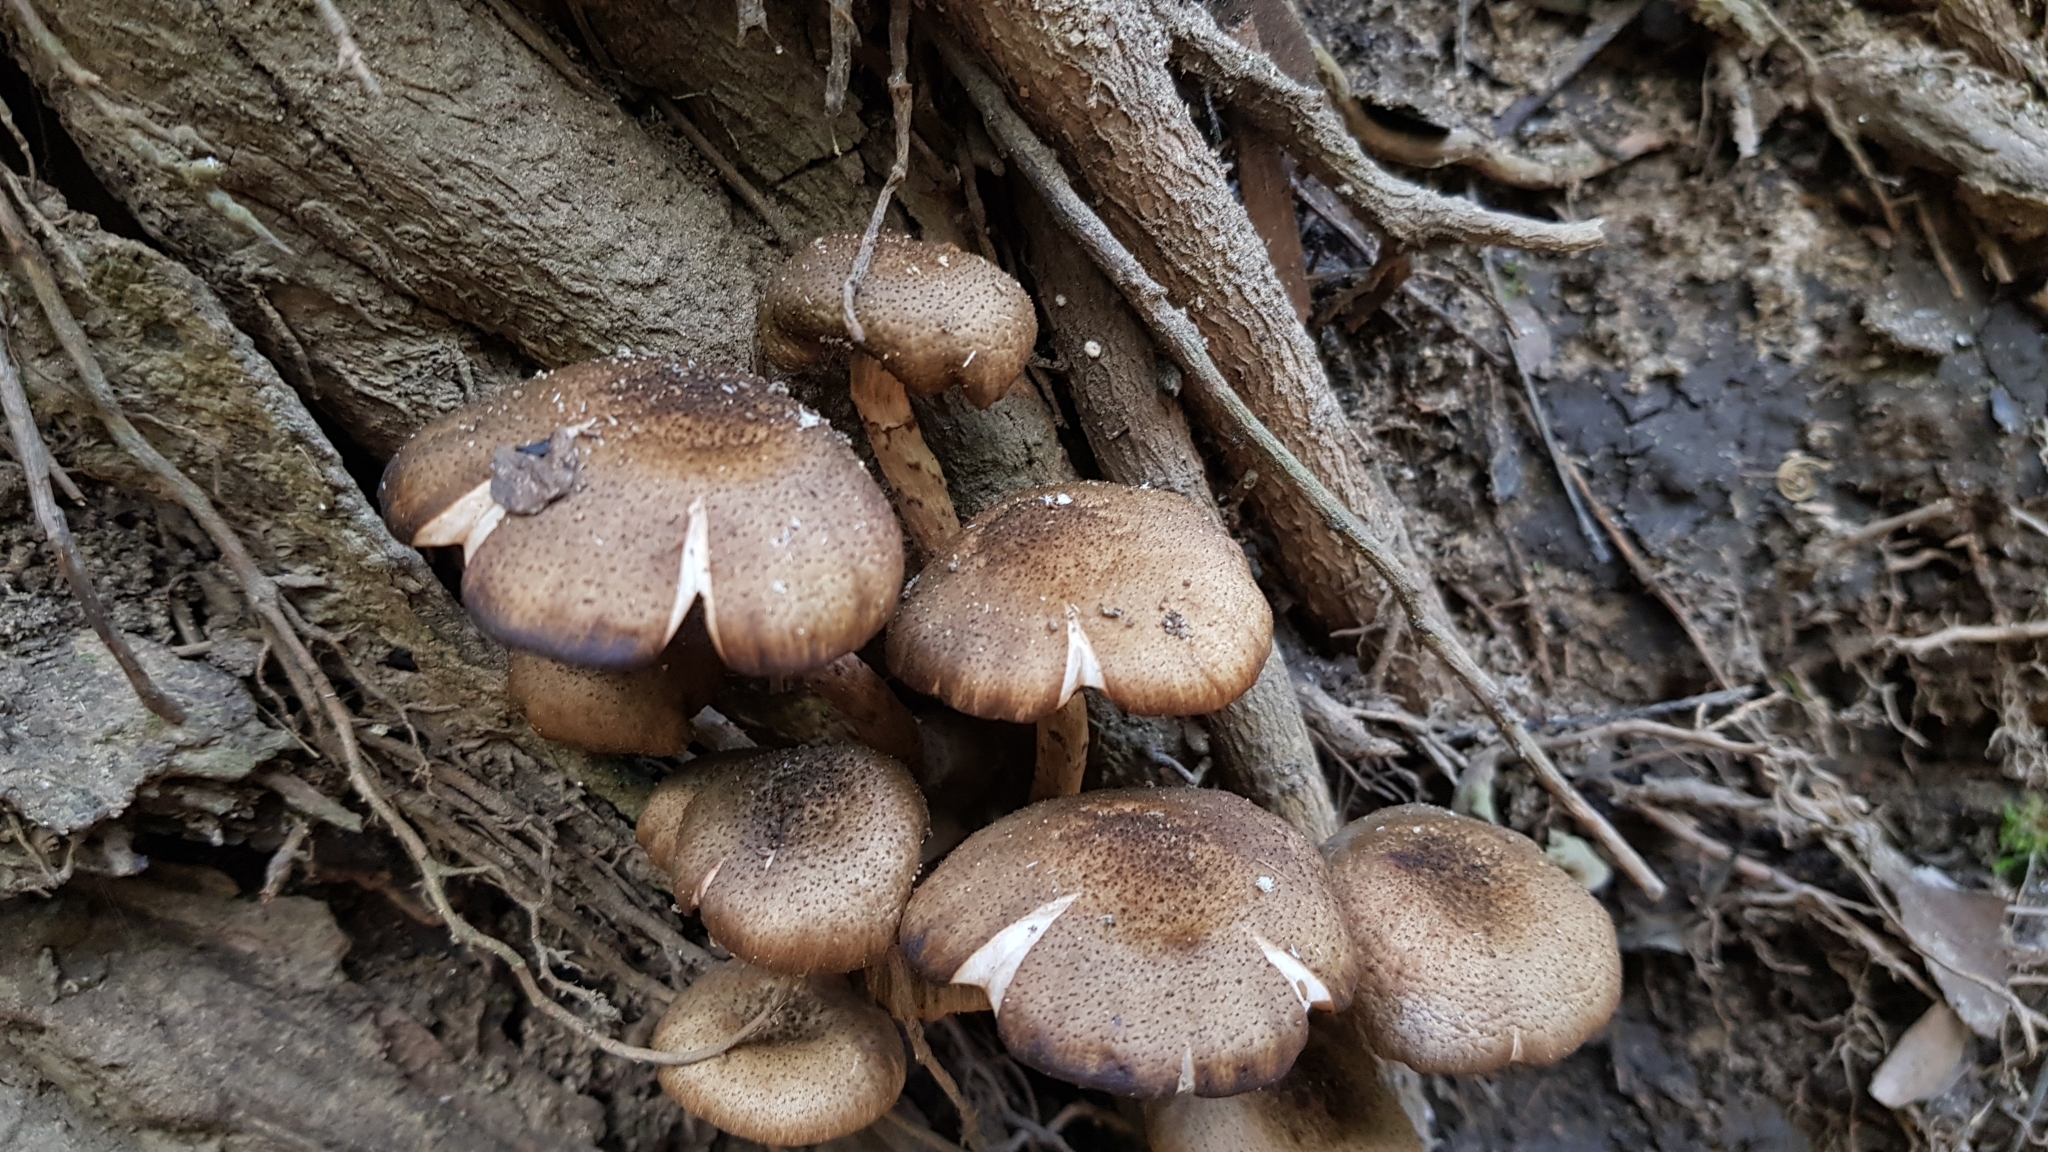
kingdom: Fungi
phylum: Basidiomycota
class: Agaricomycetes
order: Agaricales
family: Physalacriaceae
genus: Armillaria
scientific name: Armillaria novae-zelandiae
